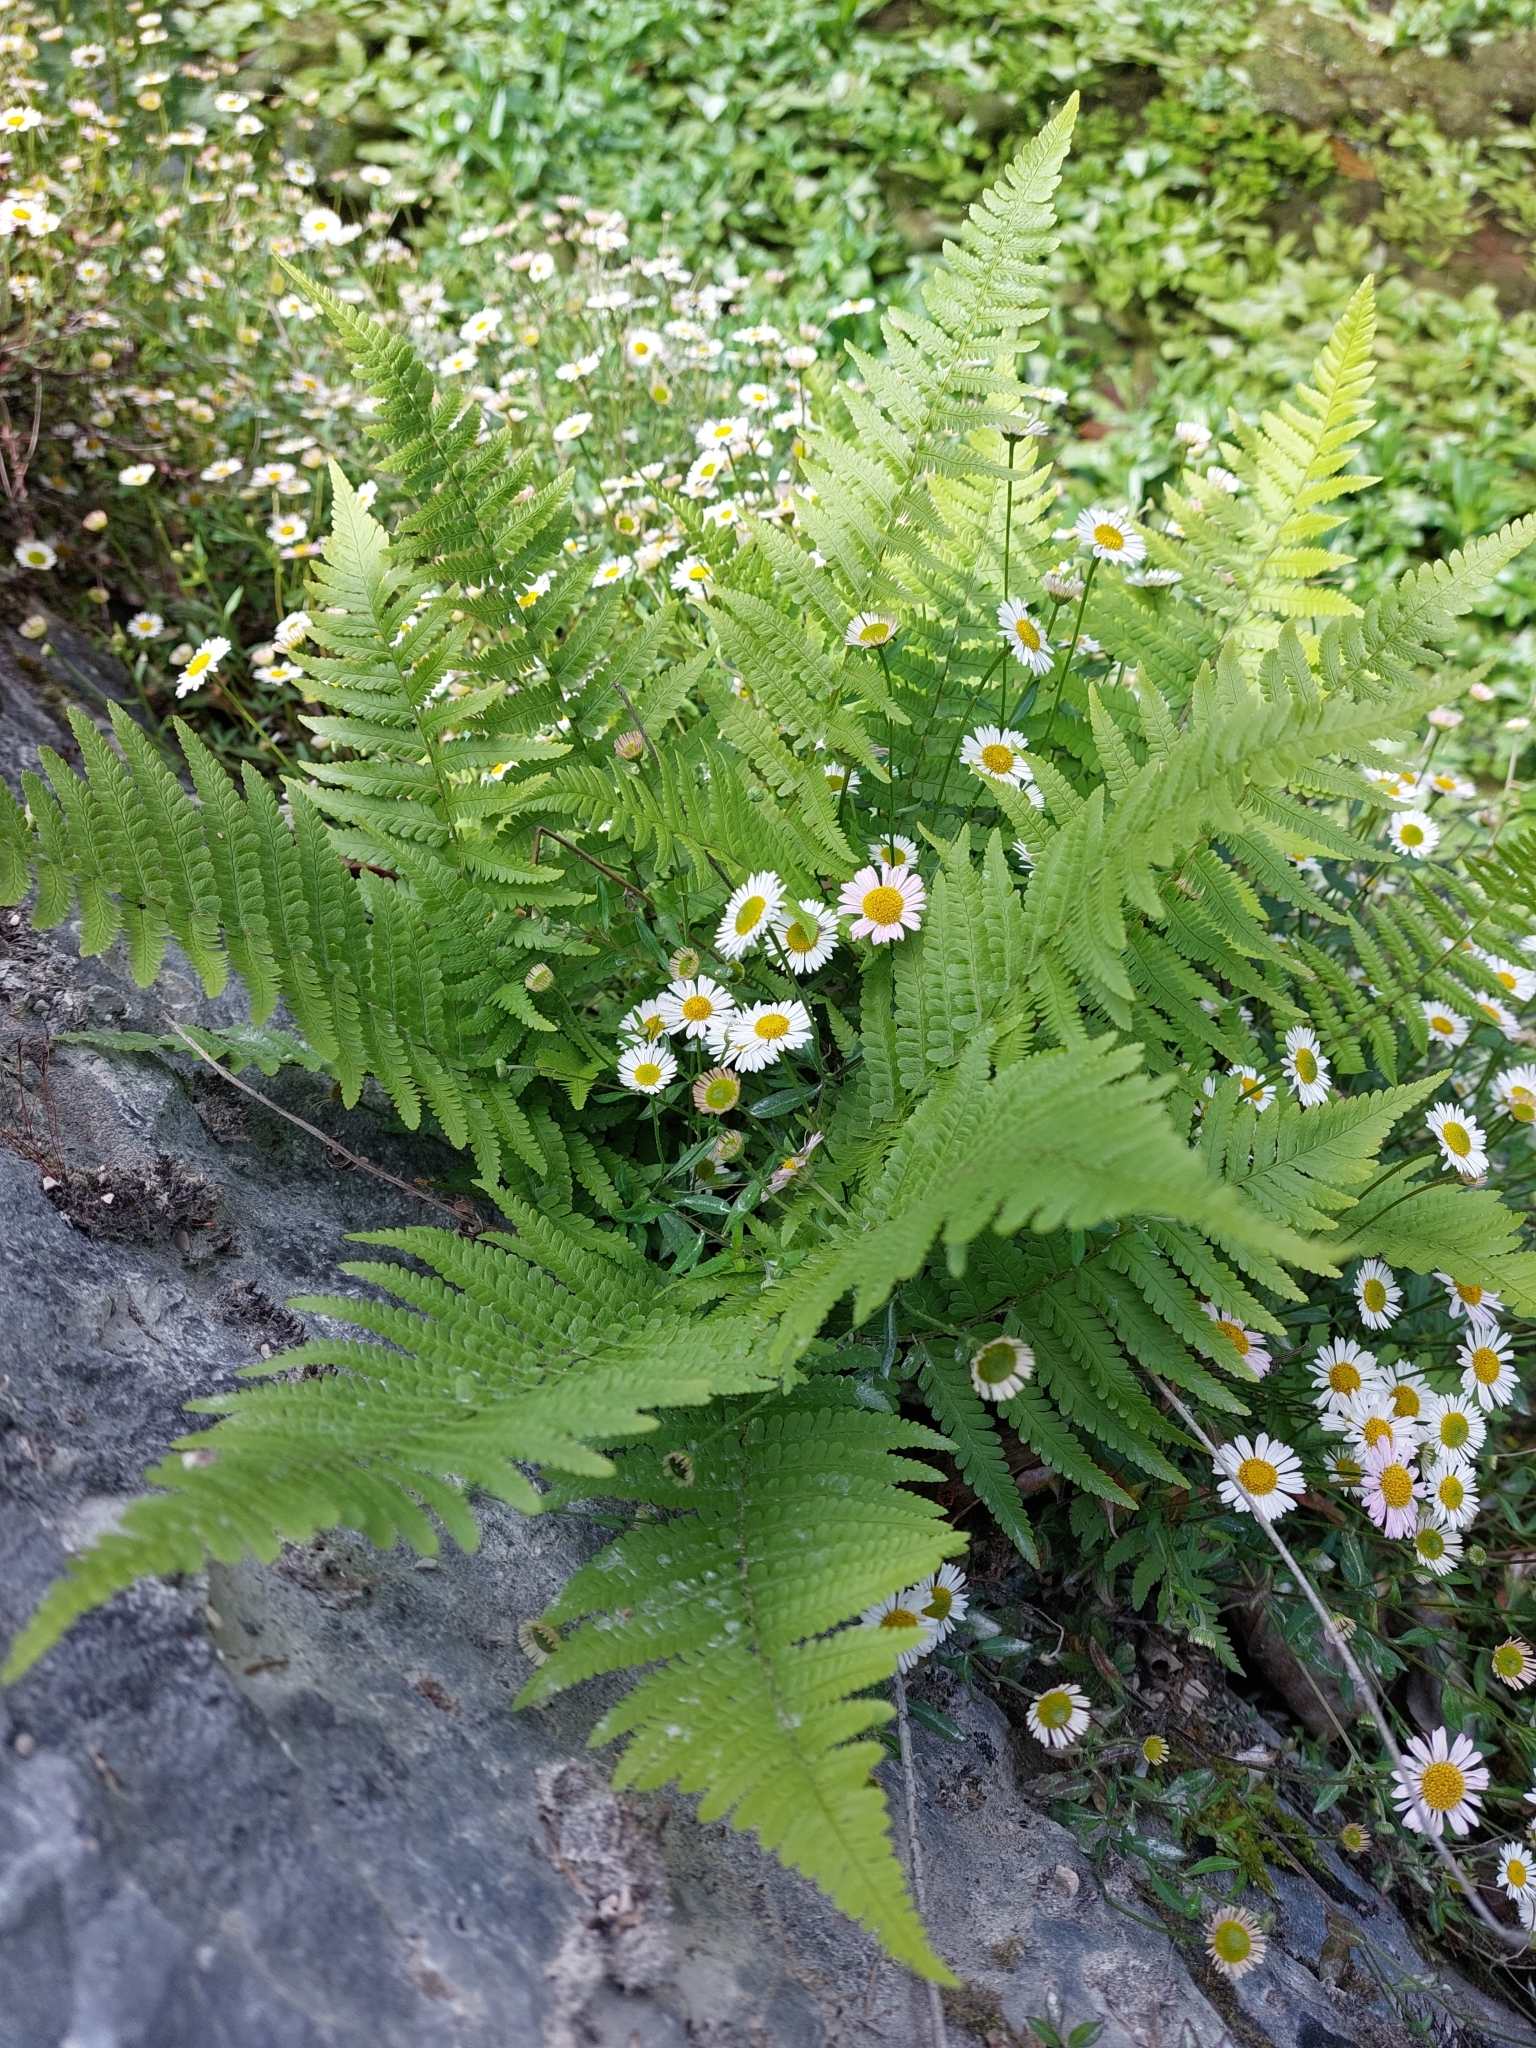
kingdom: Plantae
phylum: Tracheophyta
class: Polypodiopsida
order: Polypodiales
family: Dryopteridaceae
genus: Dryopteris
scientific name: Dryopteris filix-mas
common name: Male fern
